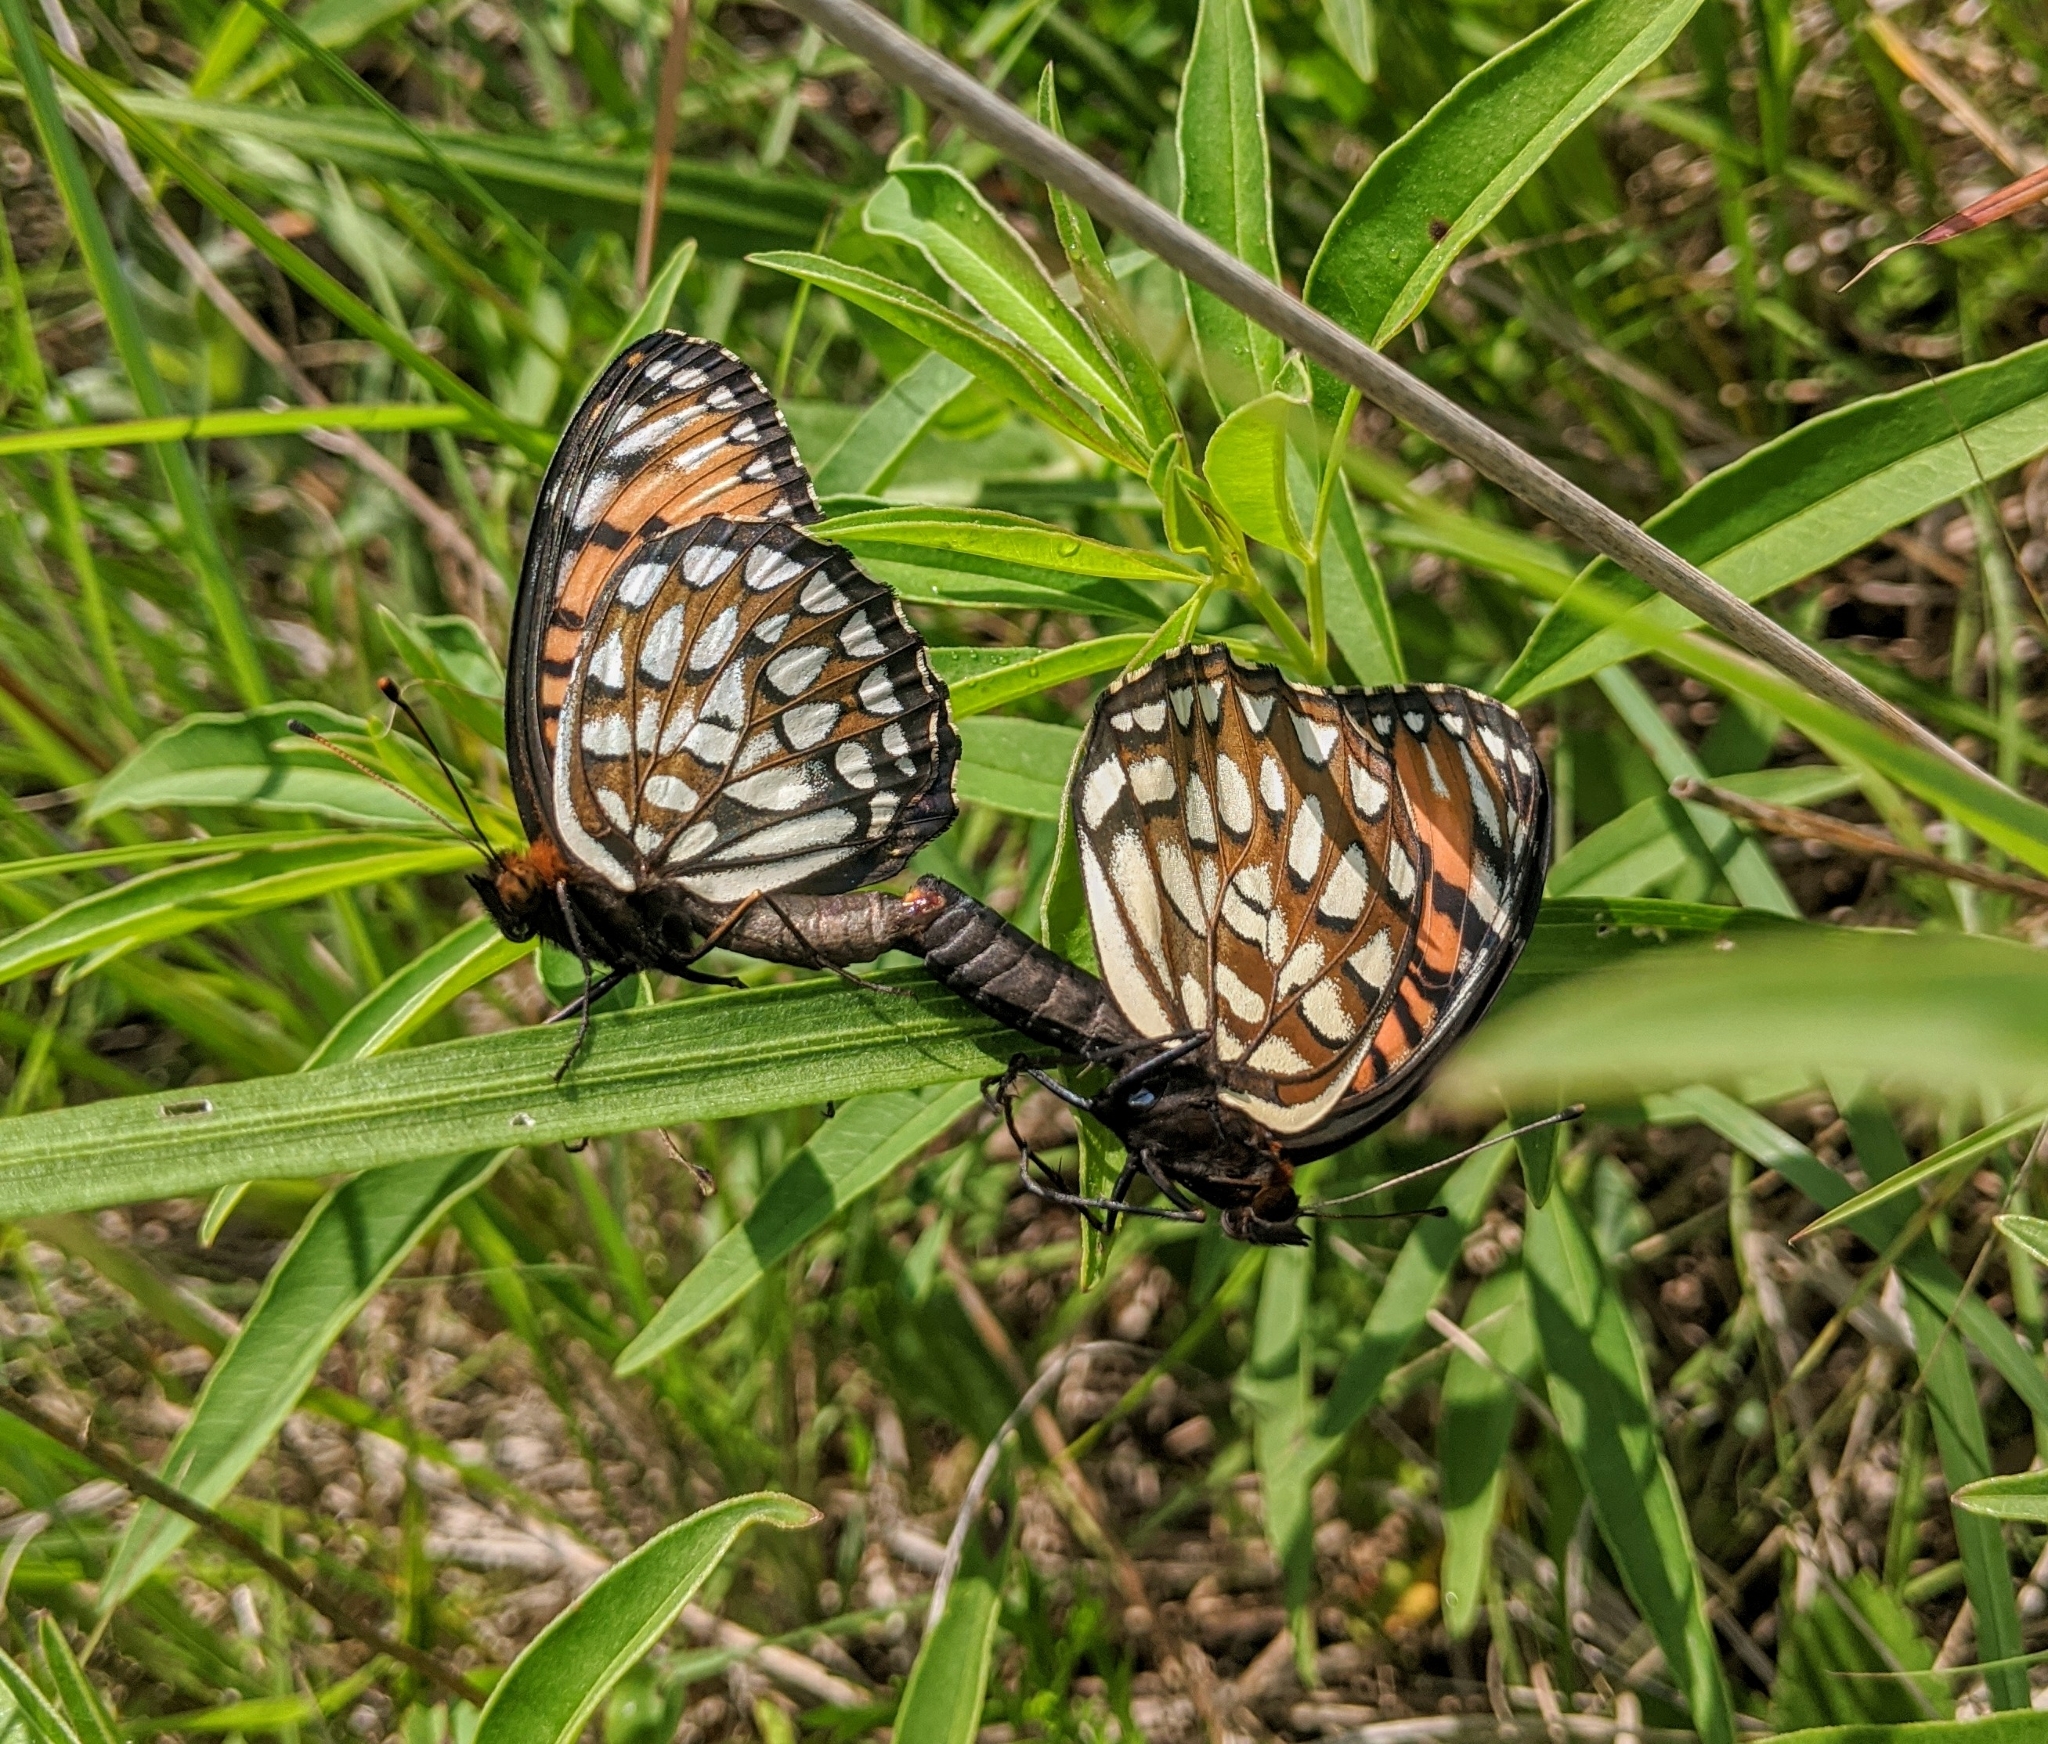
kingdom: Animalia
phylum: Arthropoda
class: Insecta
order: Lepidoptera
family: Nymphalidae
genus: Speyeria
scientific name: Speyeria idalia
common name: Regal fritillary
